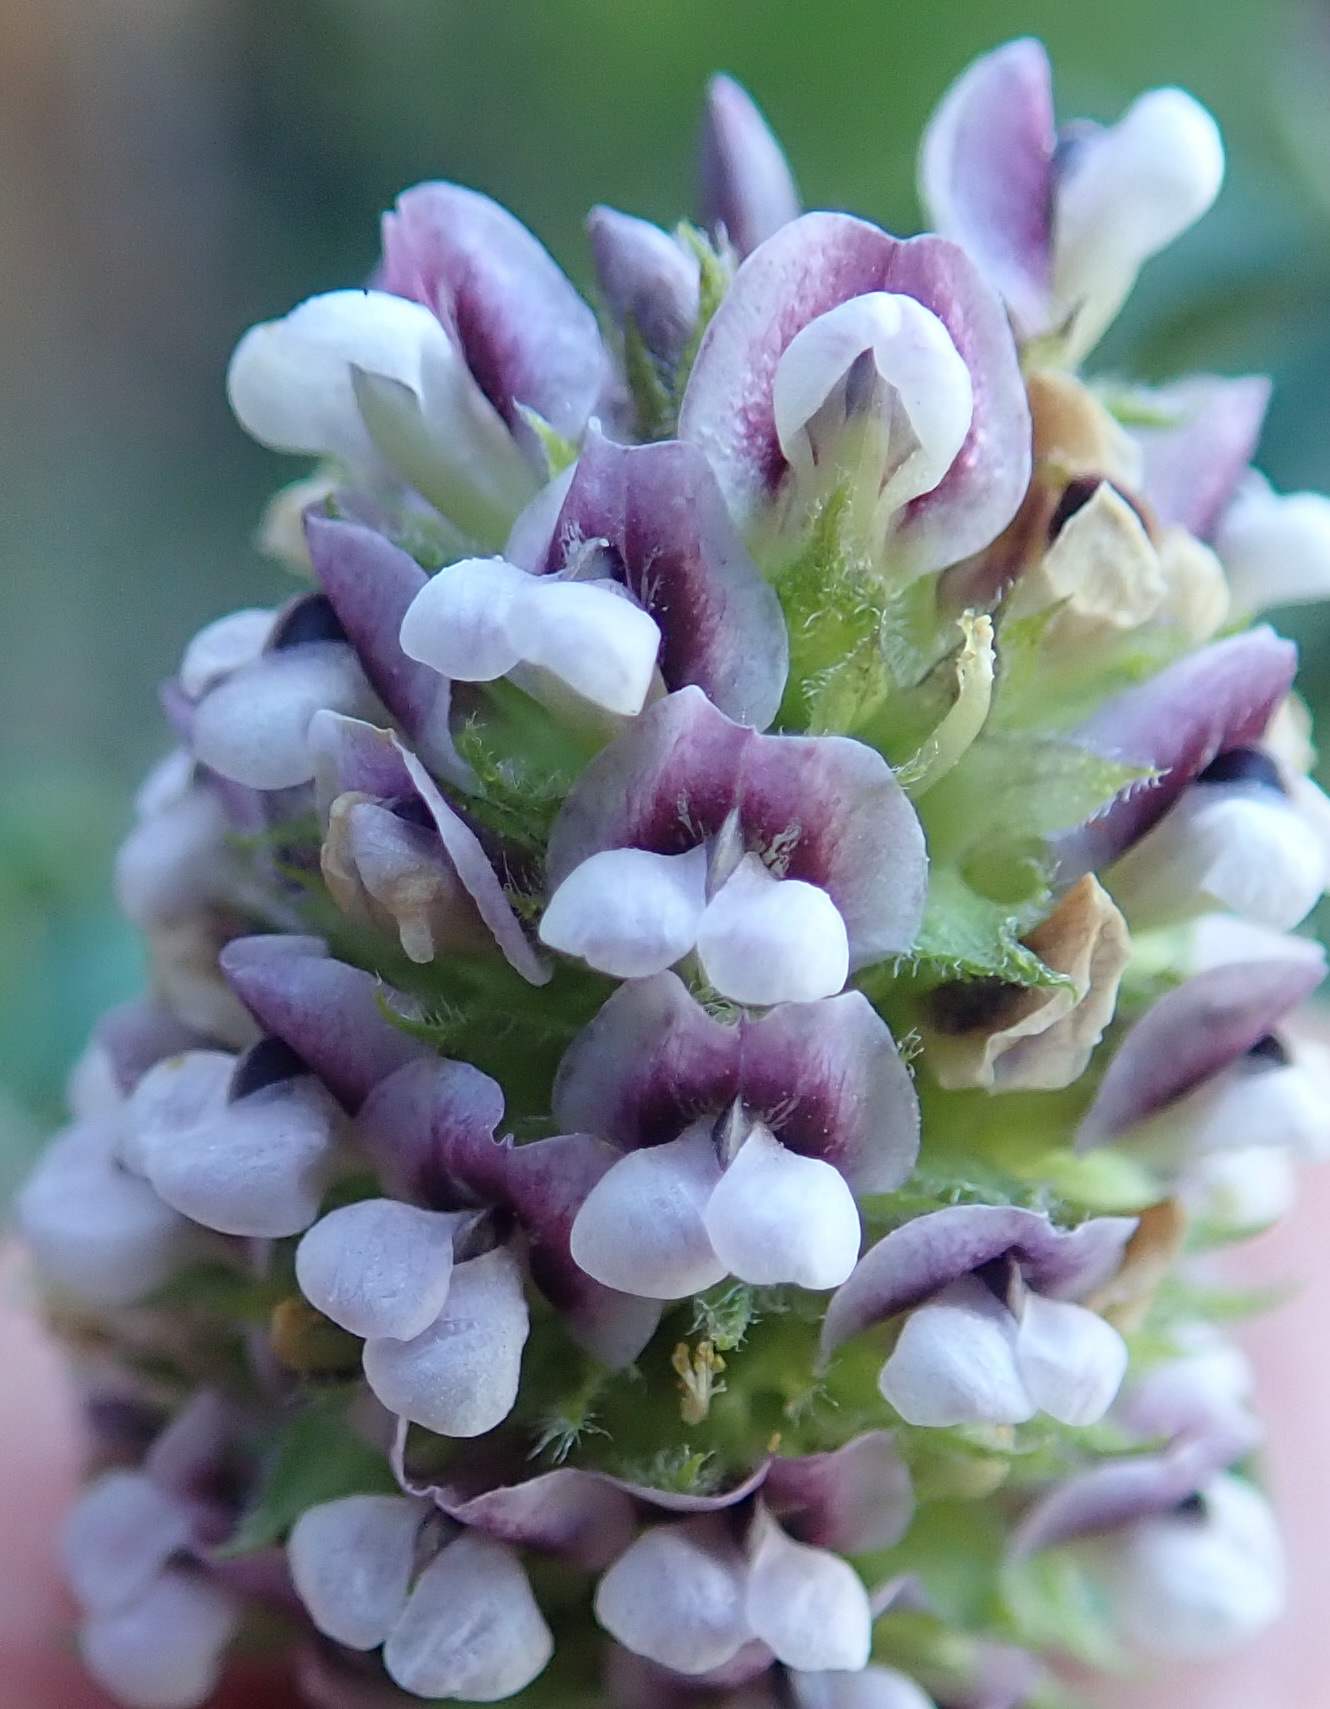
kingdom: Plantae
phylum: Tracheophyta
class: Magnoliopsida
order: Fabales
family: Fabaceae
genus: Psoralea
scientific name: Psoralea stachyera
